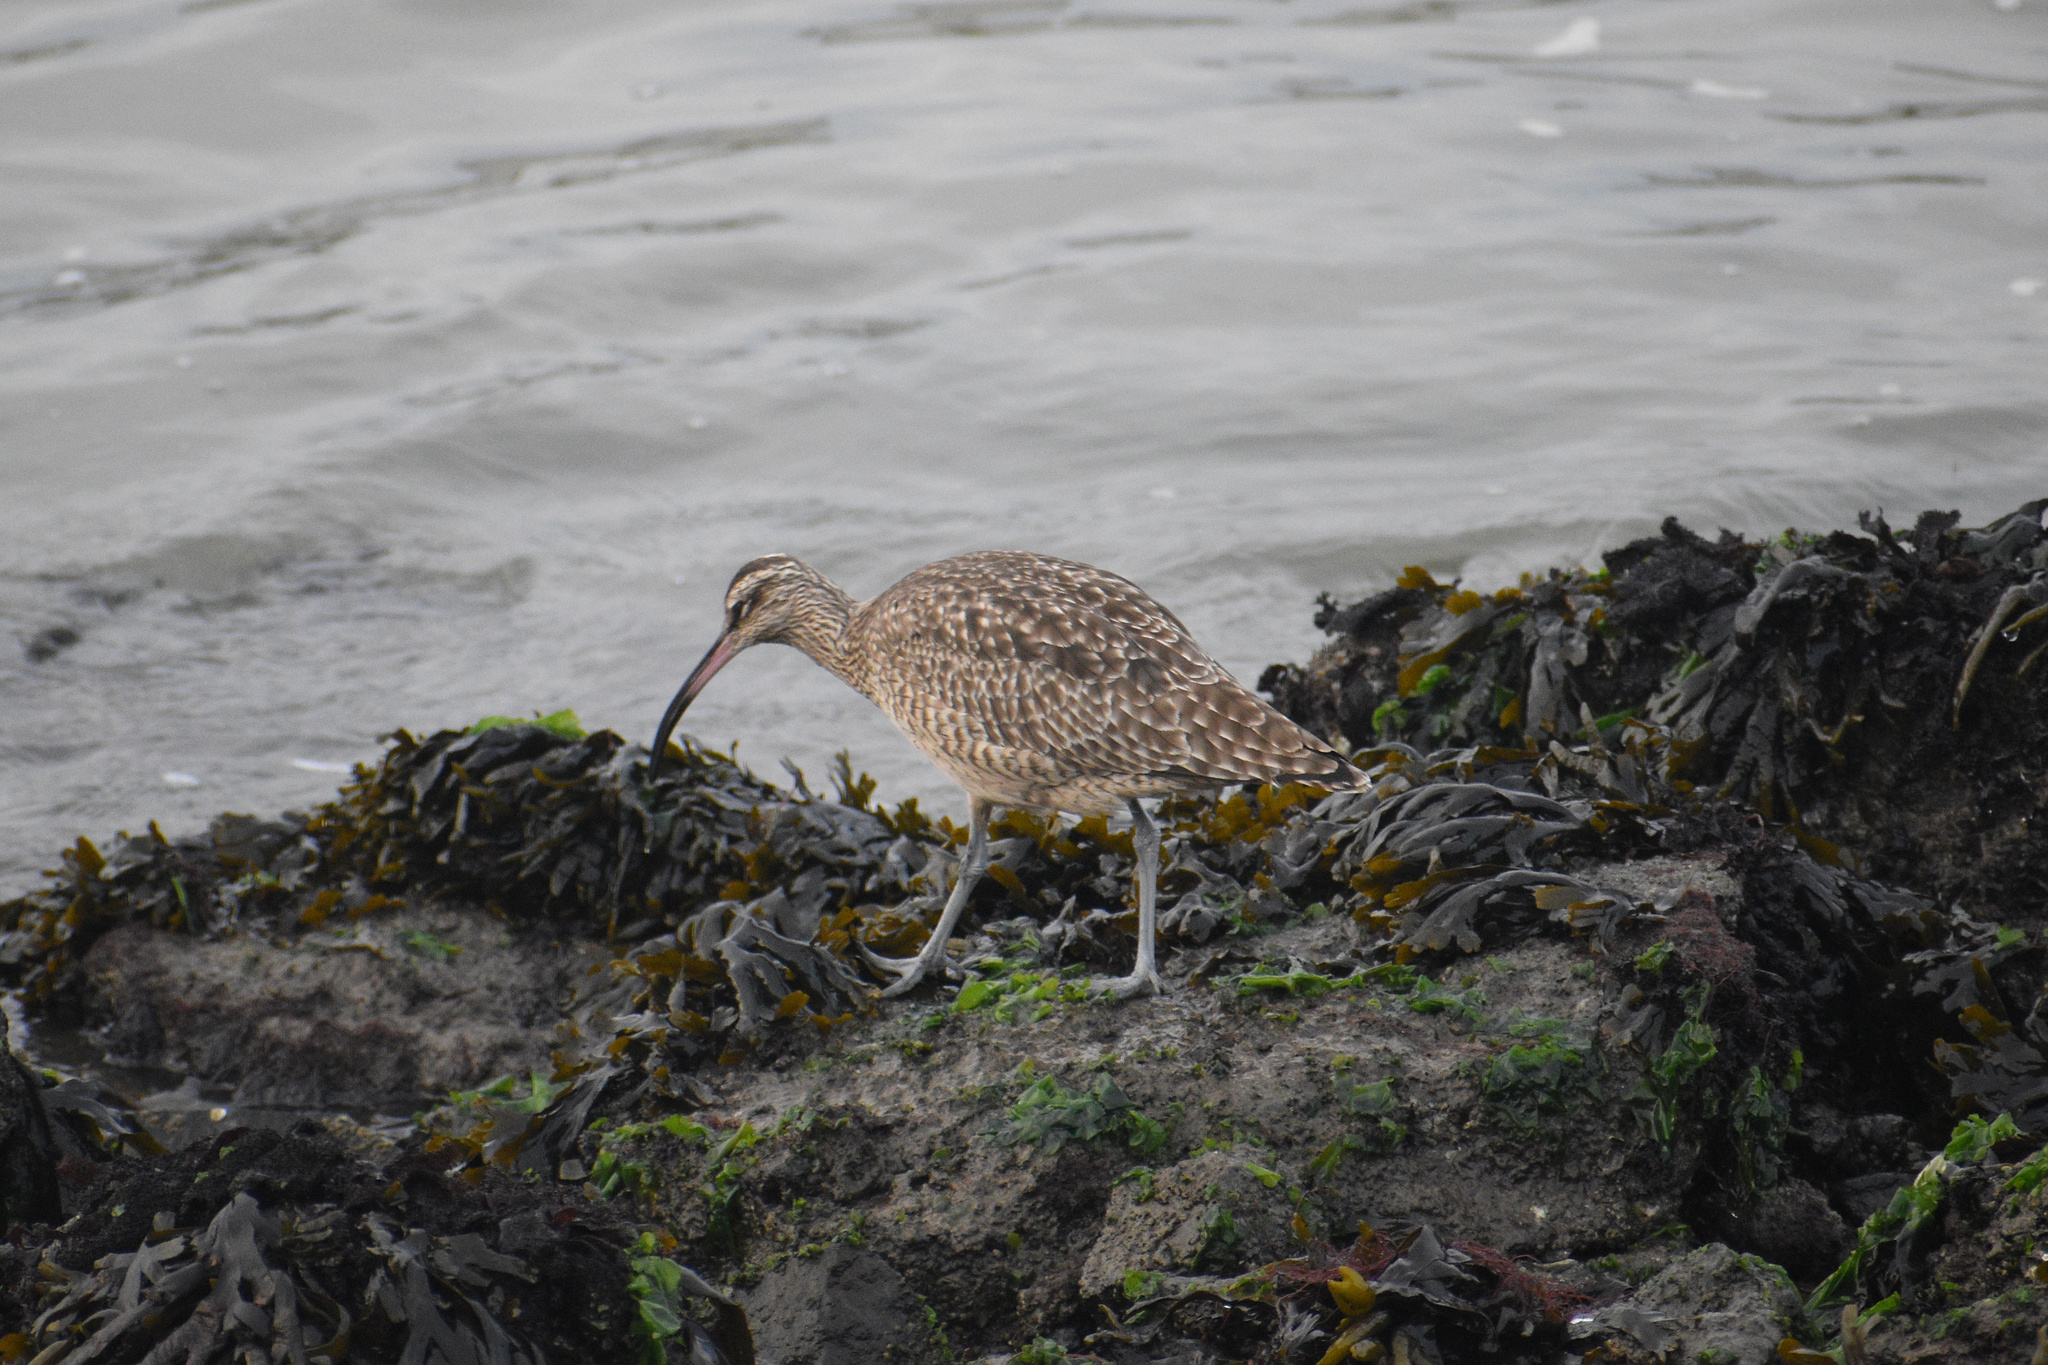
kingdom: Animalia
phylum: Chordata
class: Aves
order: Charadriiformes
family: Scolopacidae
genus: Numenius
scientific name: Numenius phaeopus
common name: Whimbrel
